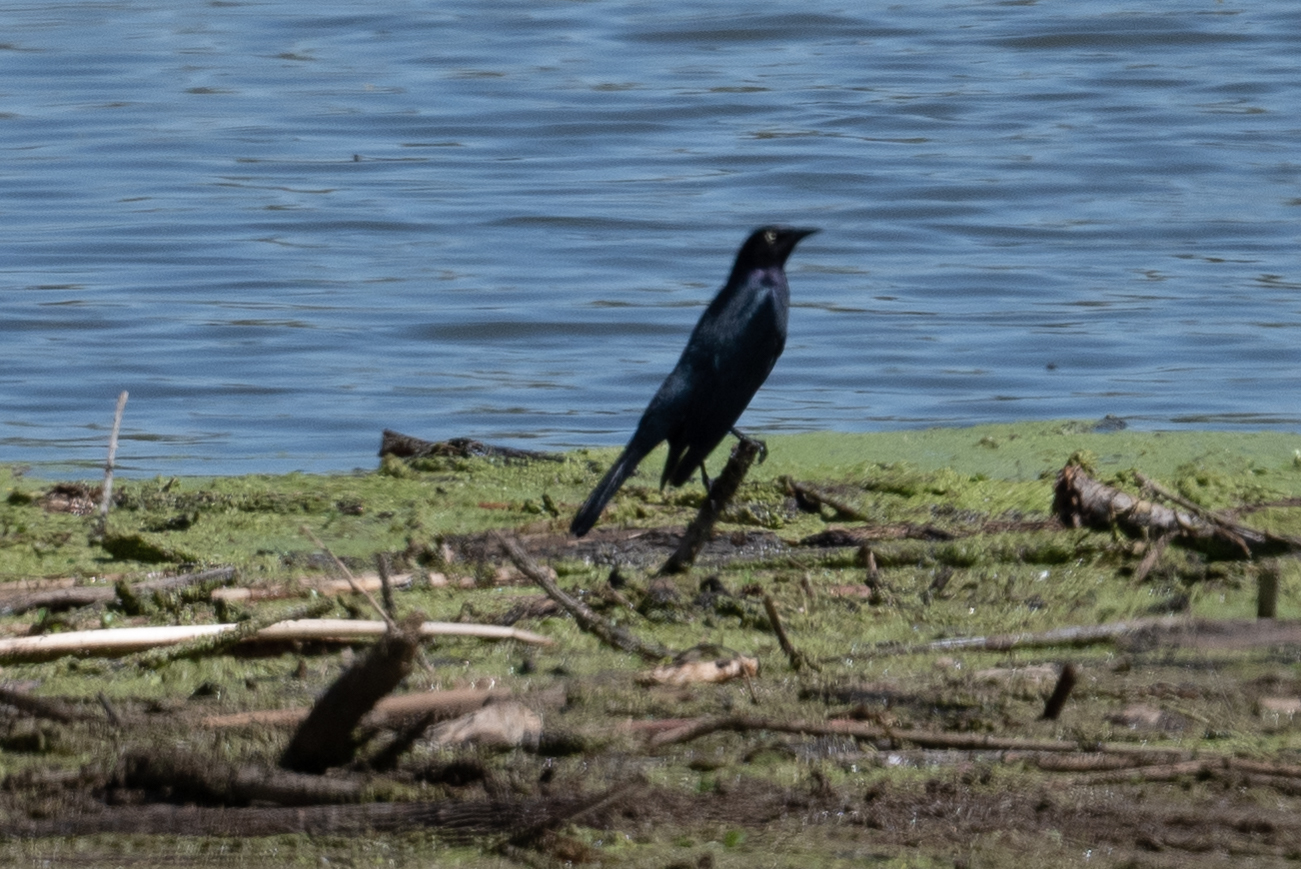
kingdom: Animalia
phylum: Chordata
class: Aves
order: Passeriformes
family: Icteridae
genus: Euphagus
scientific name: Euphagus cyanocephalus
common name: Brewer's blackbird
